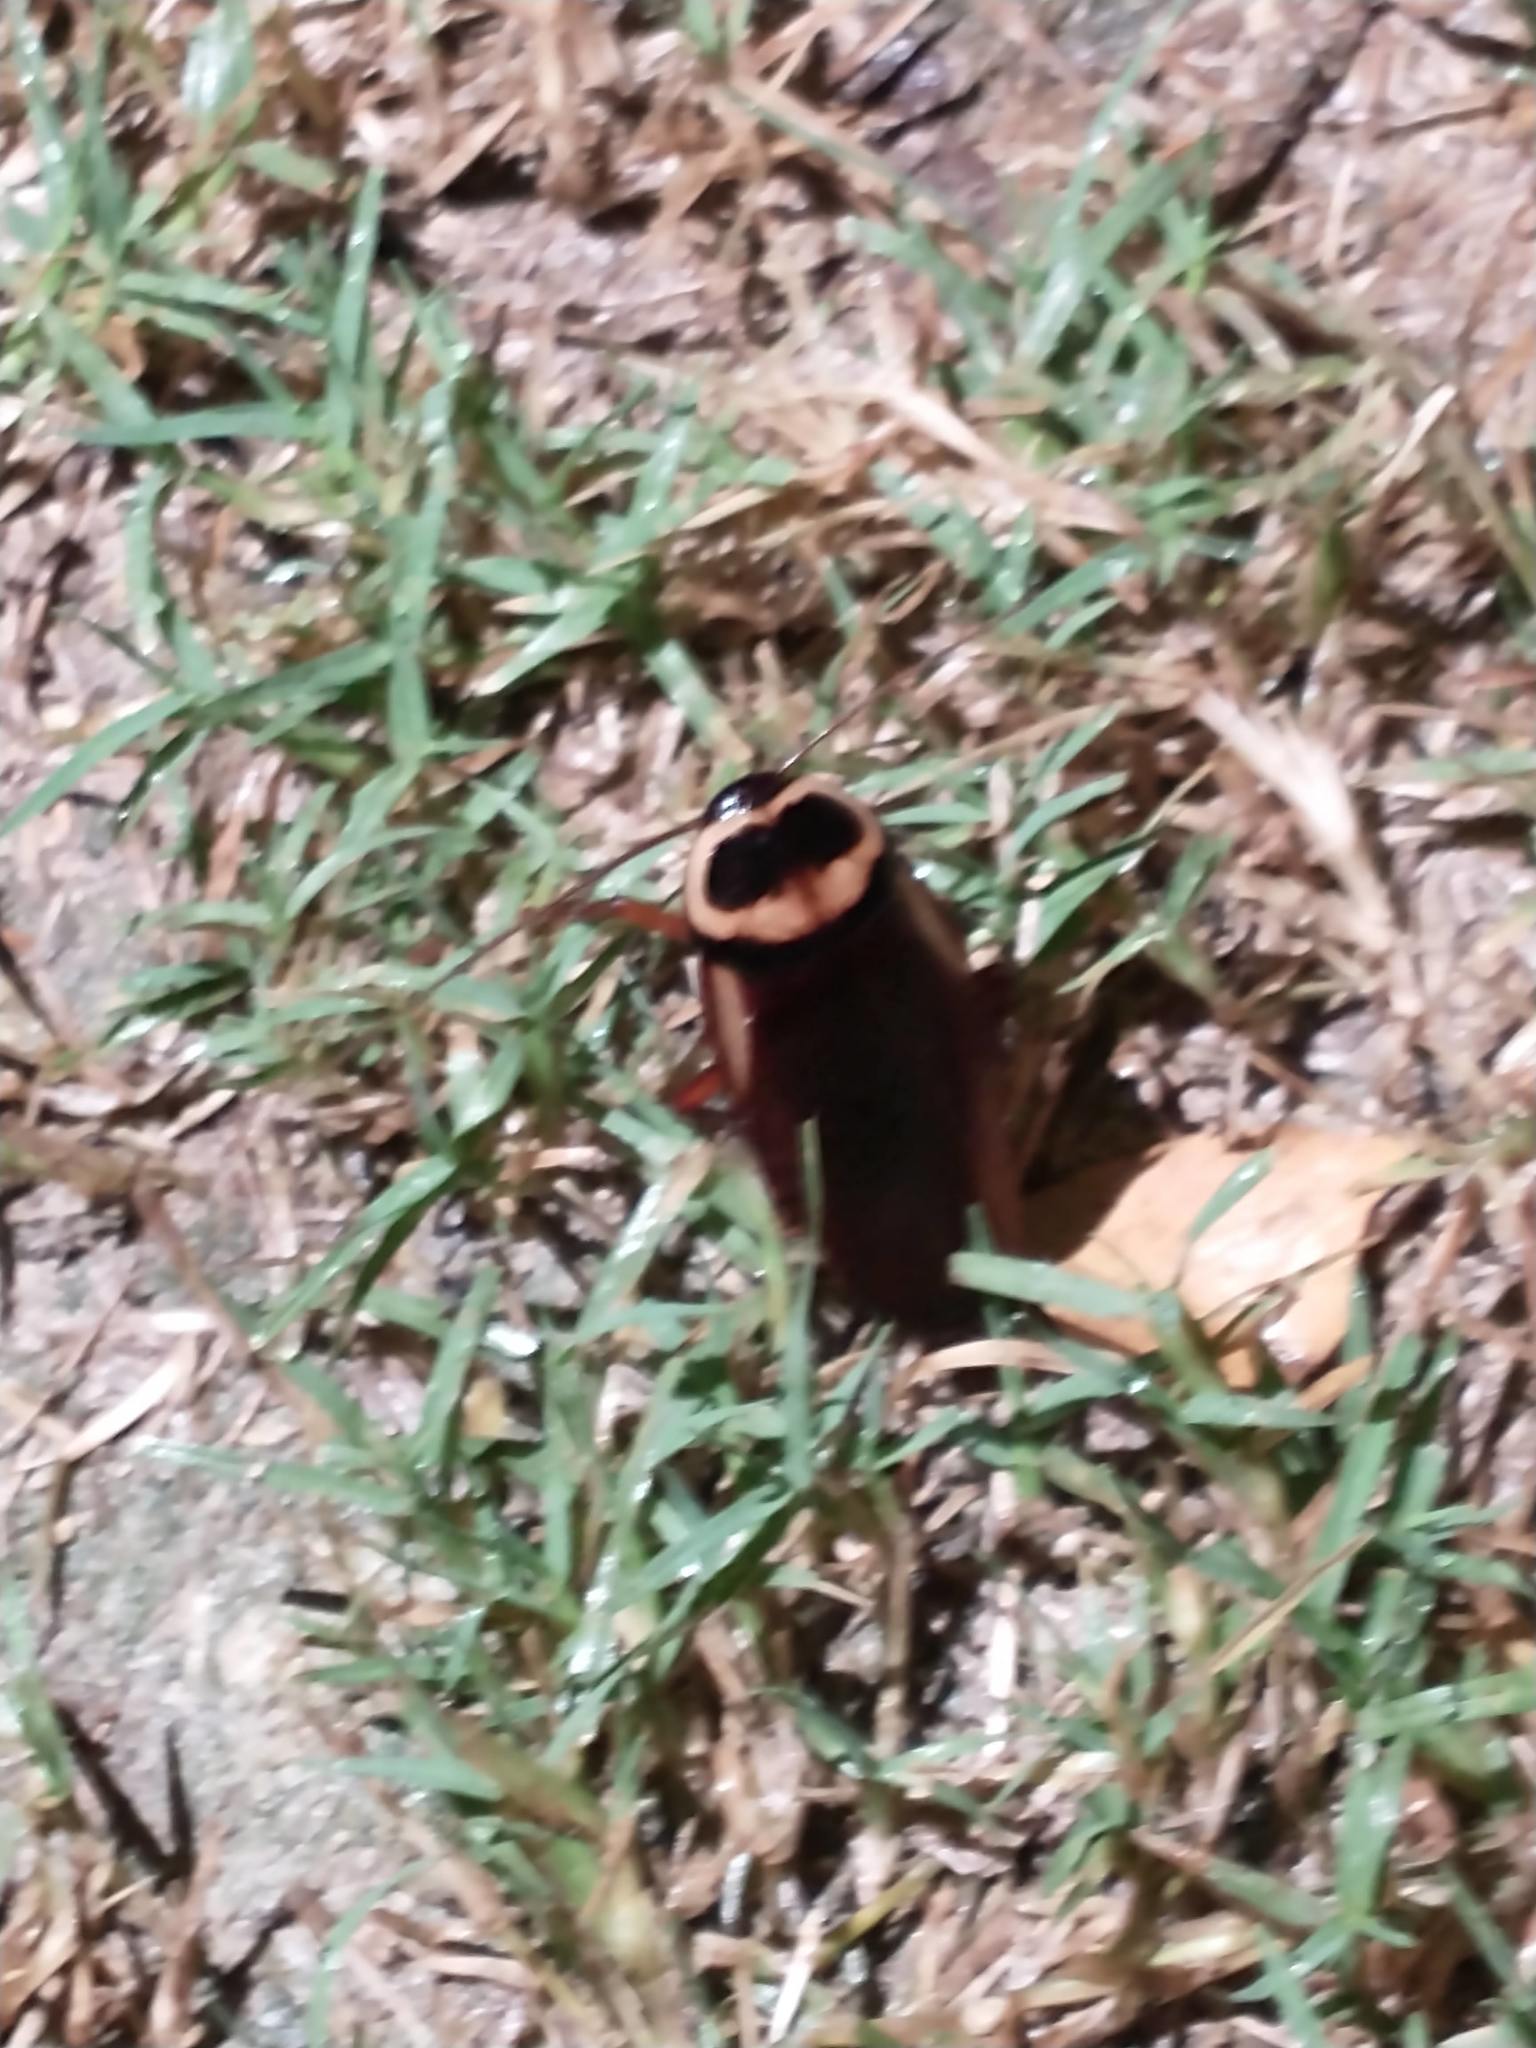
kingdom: Animalia
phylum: Arthropoda
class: Insecta
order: Blattodea
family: Blattidae
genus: Periplaneta
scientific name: Periplaneta australasiae
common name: Australian cockroach
